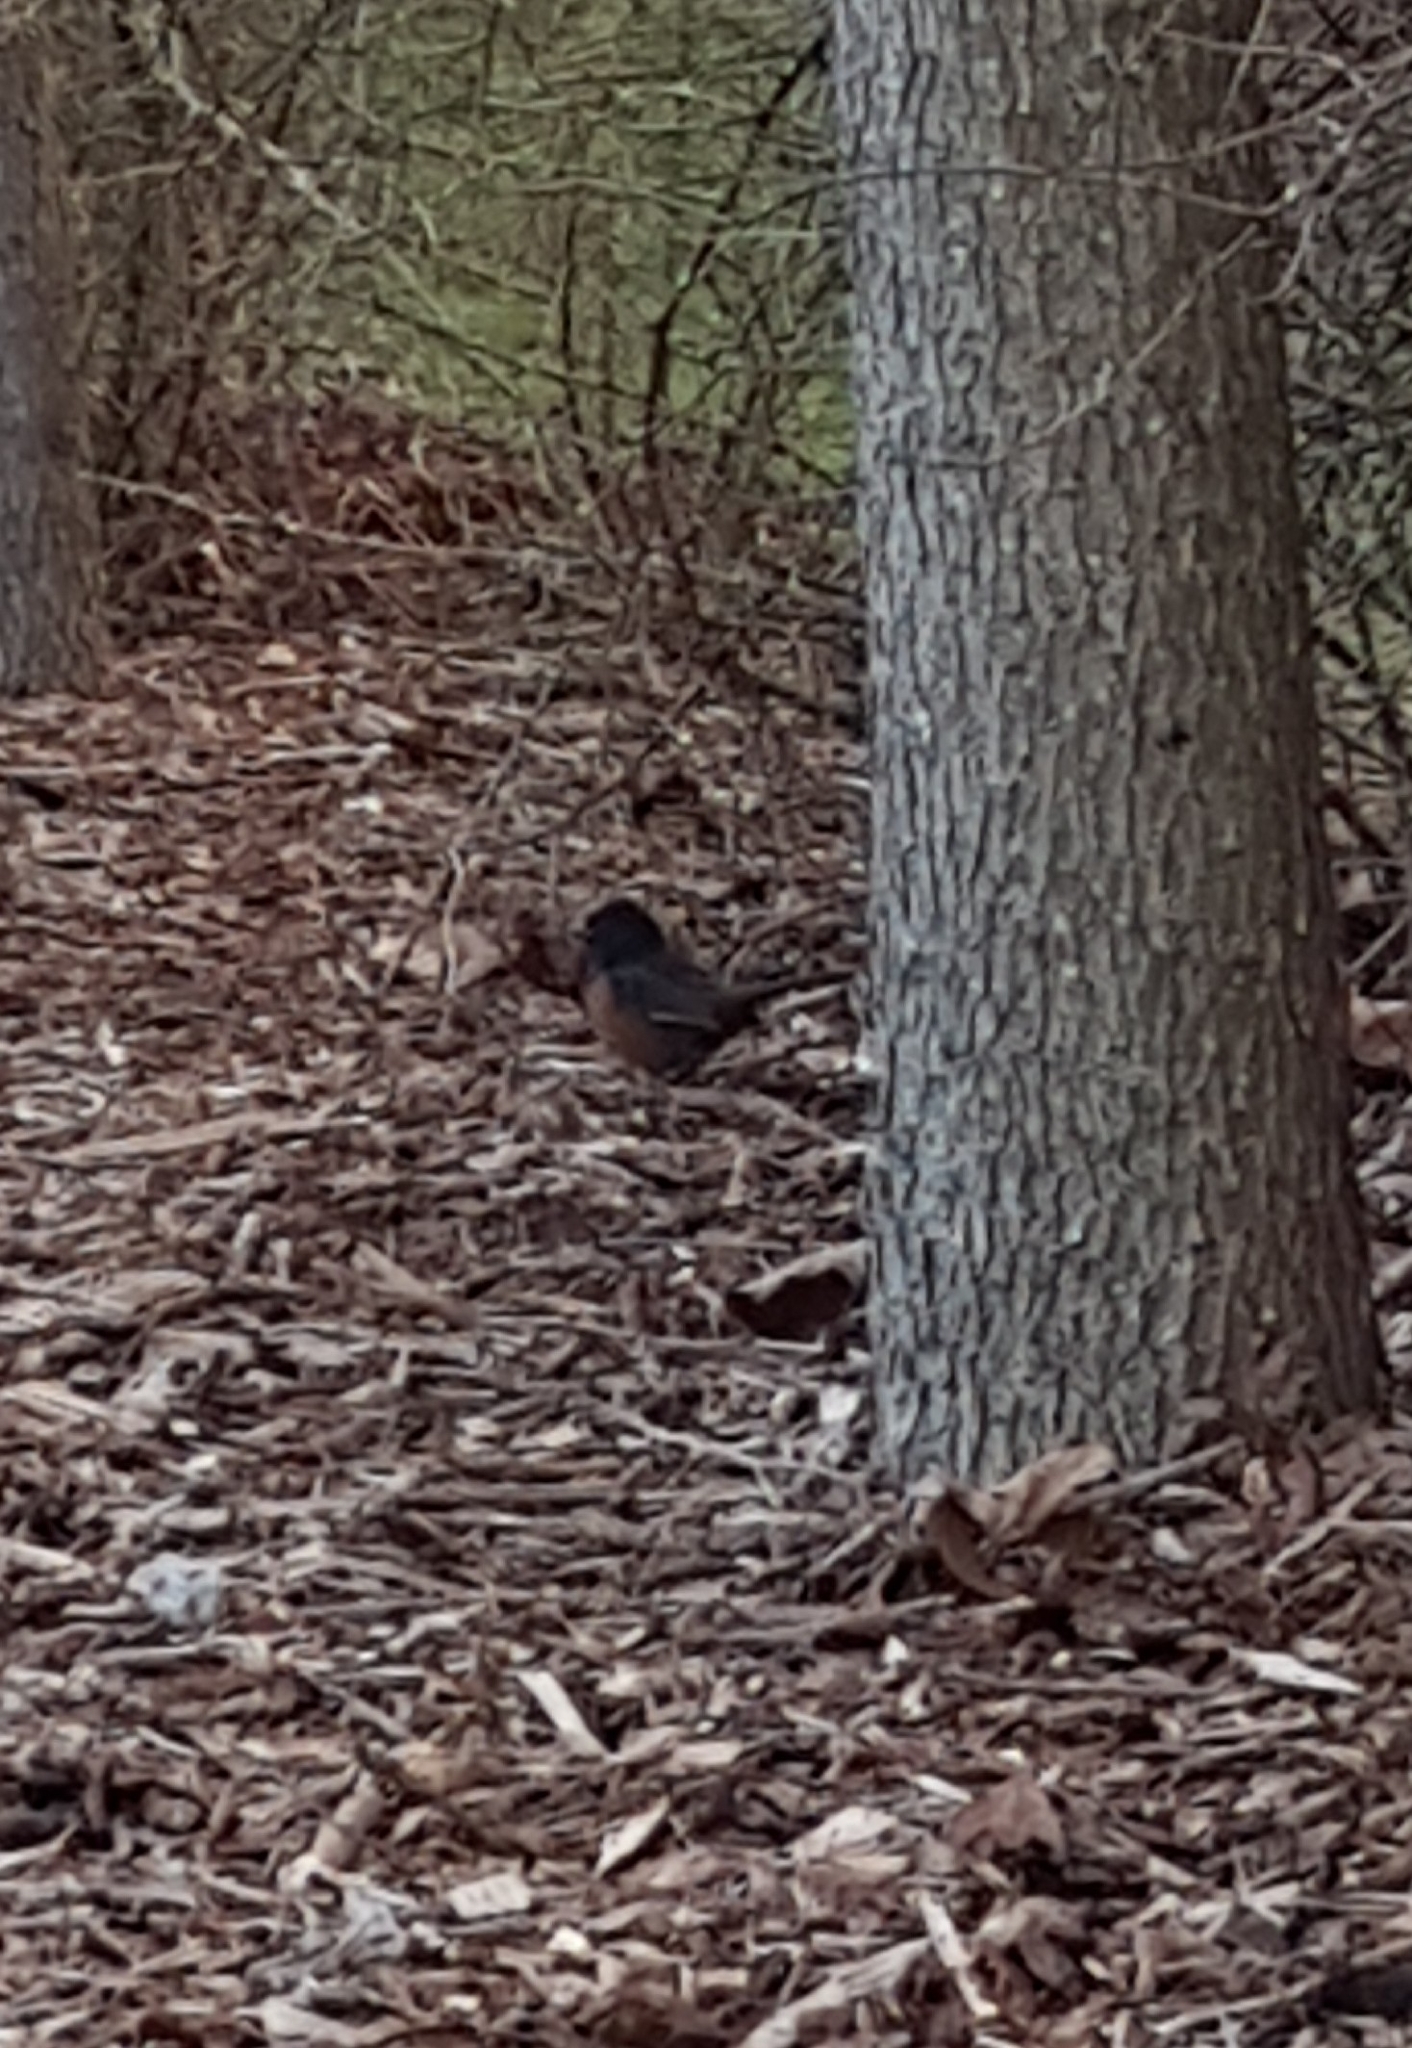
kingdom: Animalia
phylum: Chordata
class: Aves
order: Passeriformes
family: Passerellidae
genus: Pipilo
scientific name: Pipilo maculatus
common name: Spotted towhee
